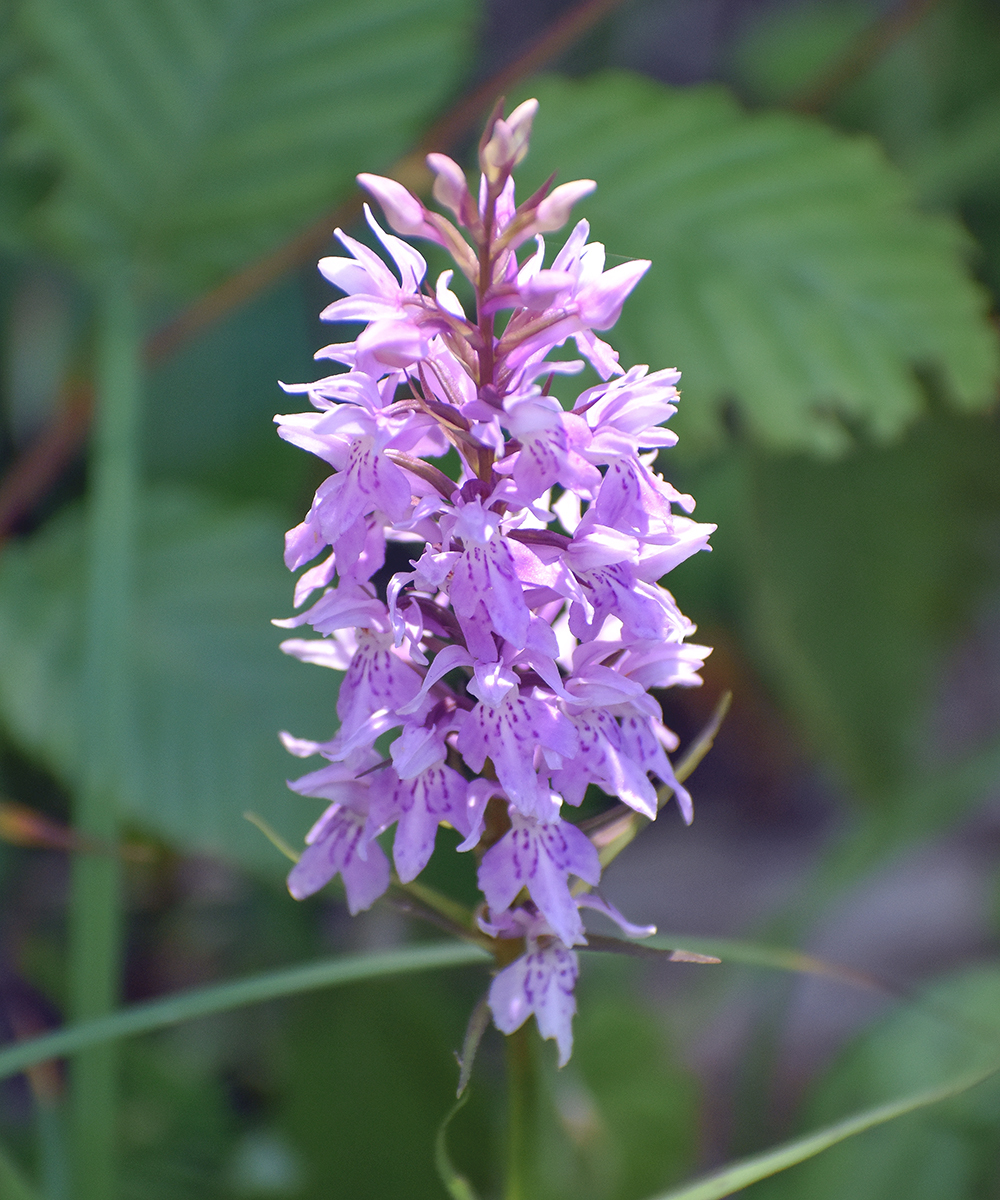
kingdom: Plantae
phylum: Tracheophyta
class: Liliopsida
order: Asparagales
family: Orchidaceae
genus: Dactylorhiza
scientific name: Dactylorhiza maculata
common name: Heath spotted-orchid
